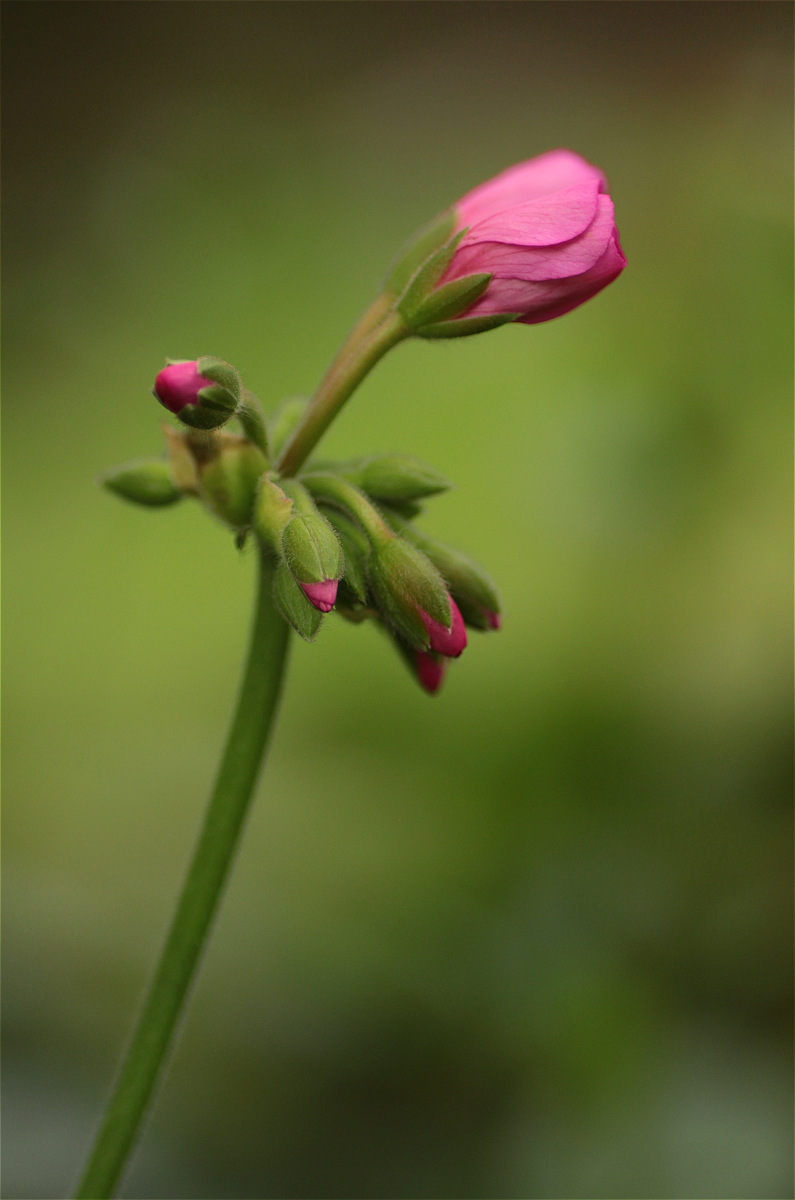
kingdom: Plantae
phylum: Tracheophyta
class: Magnoliopsida
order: Geraniales
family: Geraniaceae
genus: Pelargonium
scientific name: Pelargonium hybridum
